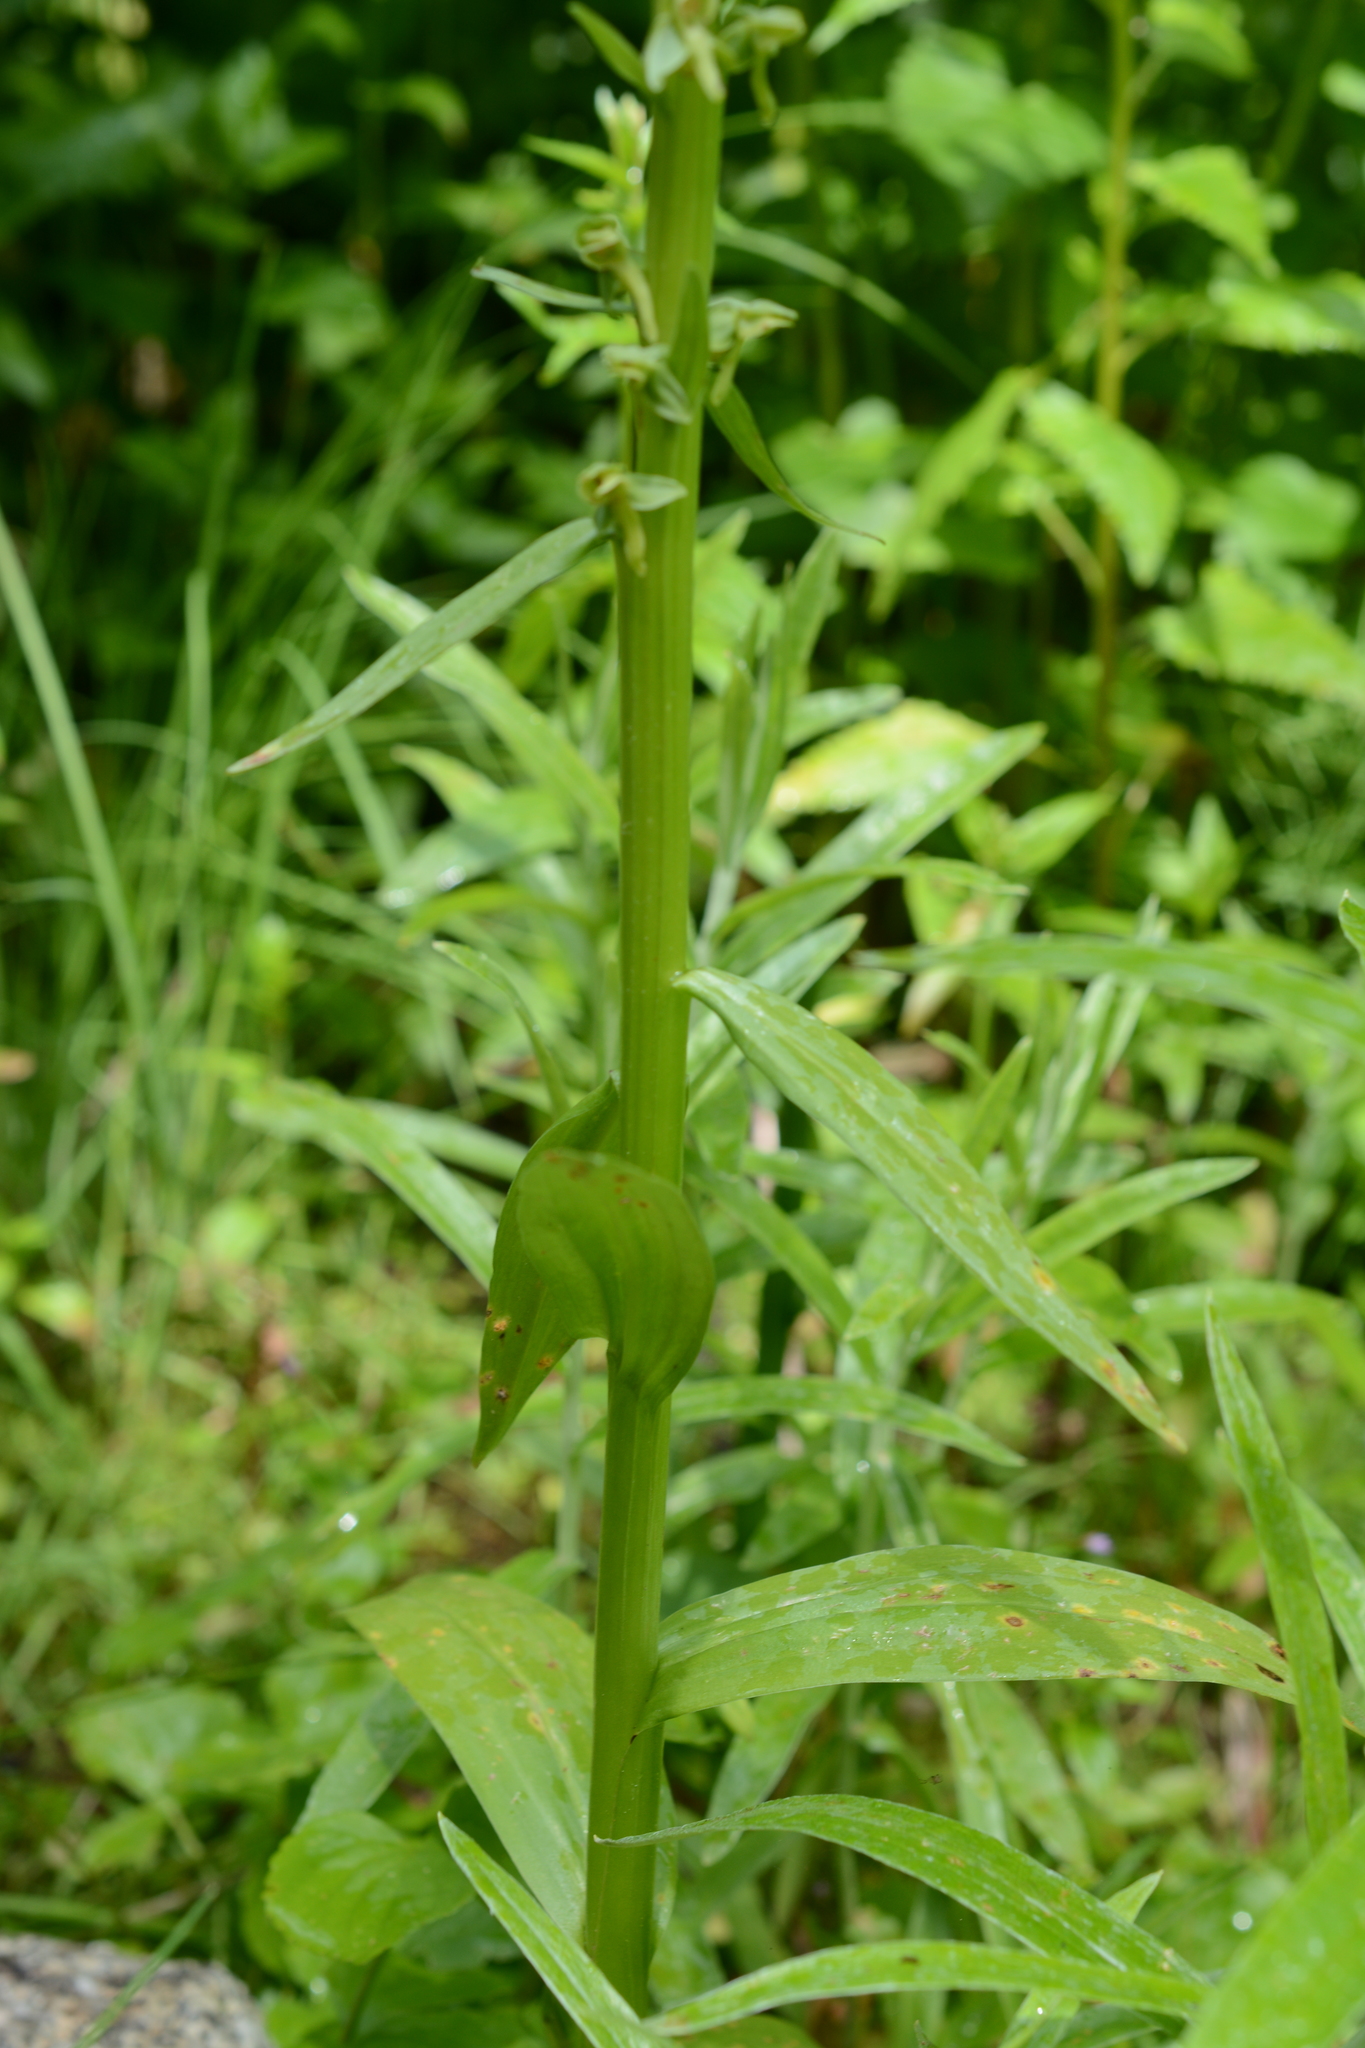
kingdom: Plantae
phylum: Tracheophyta
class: Liliopsida
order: Asparagales
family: Orchidaceae
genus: Platanthera
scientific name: Platanthera stricta
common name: Slender bog orchid
